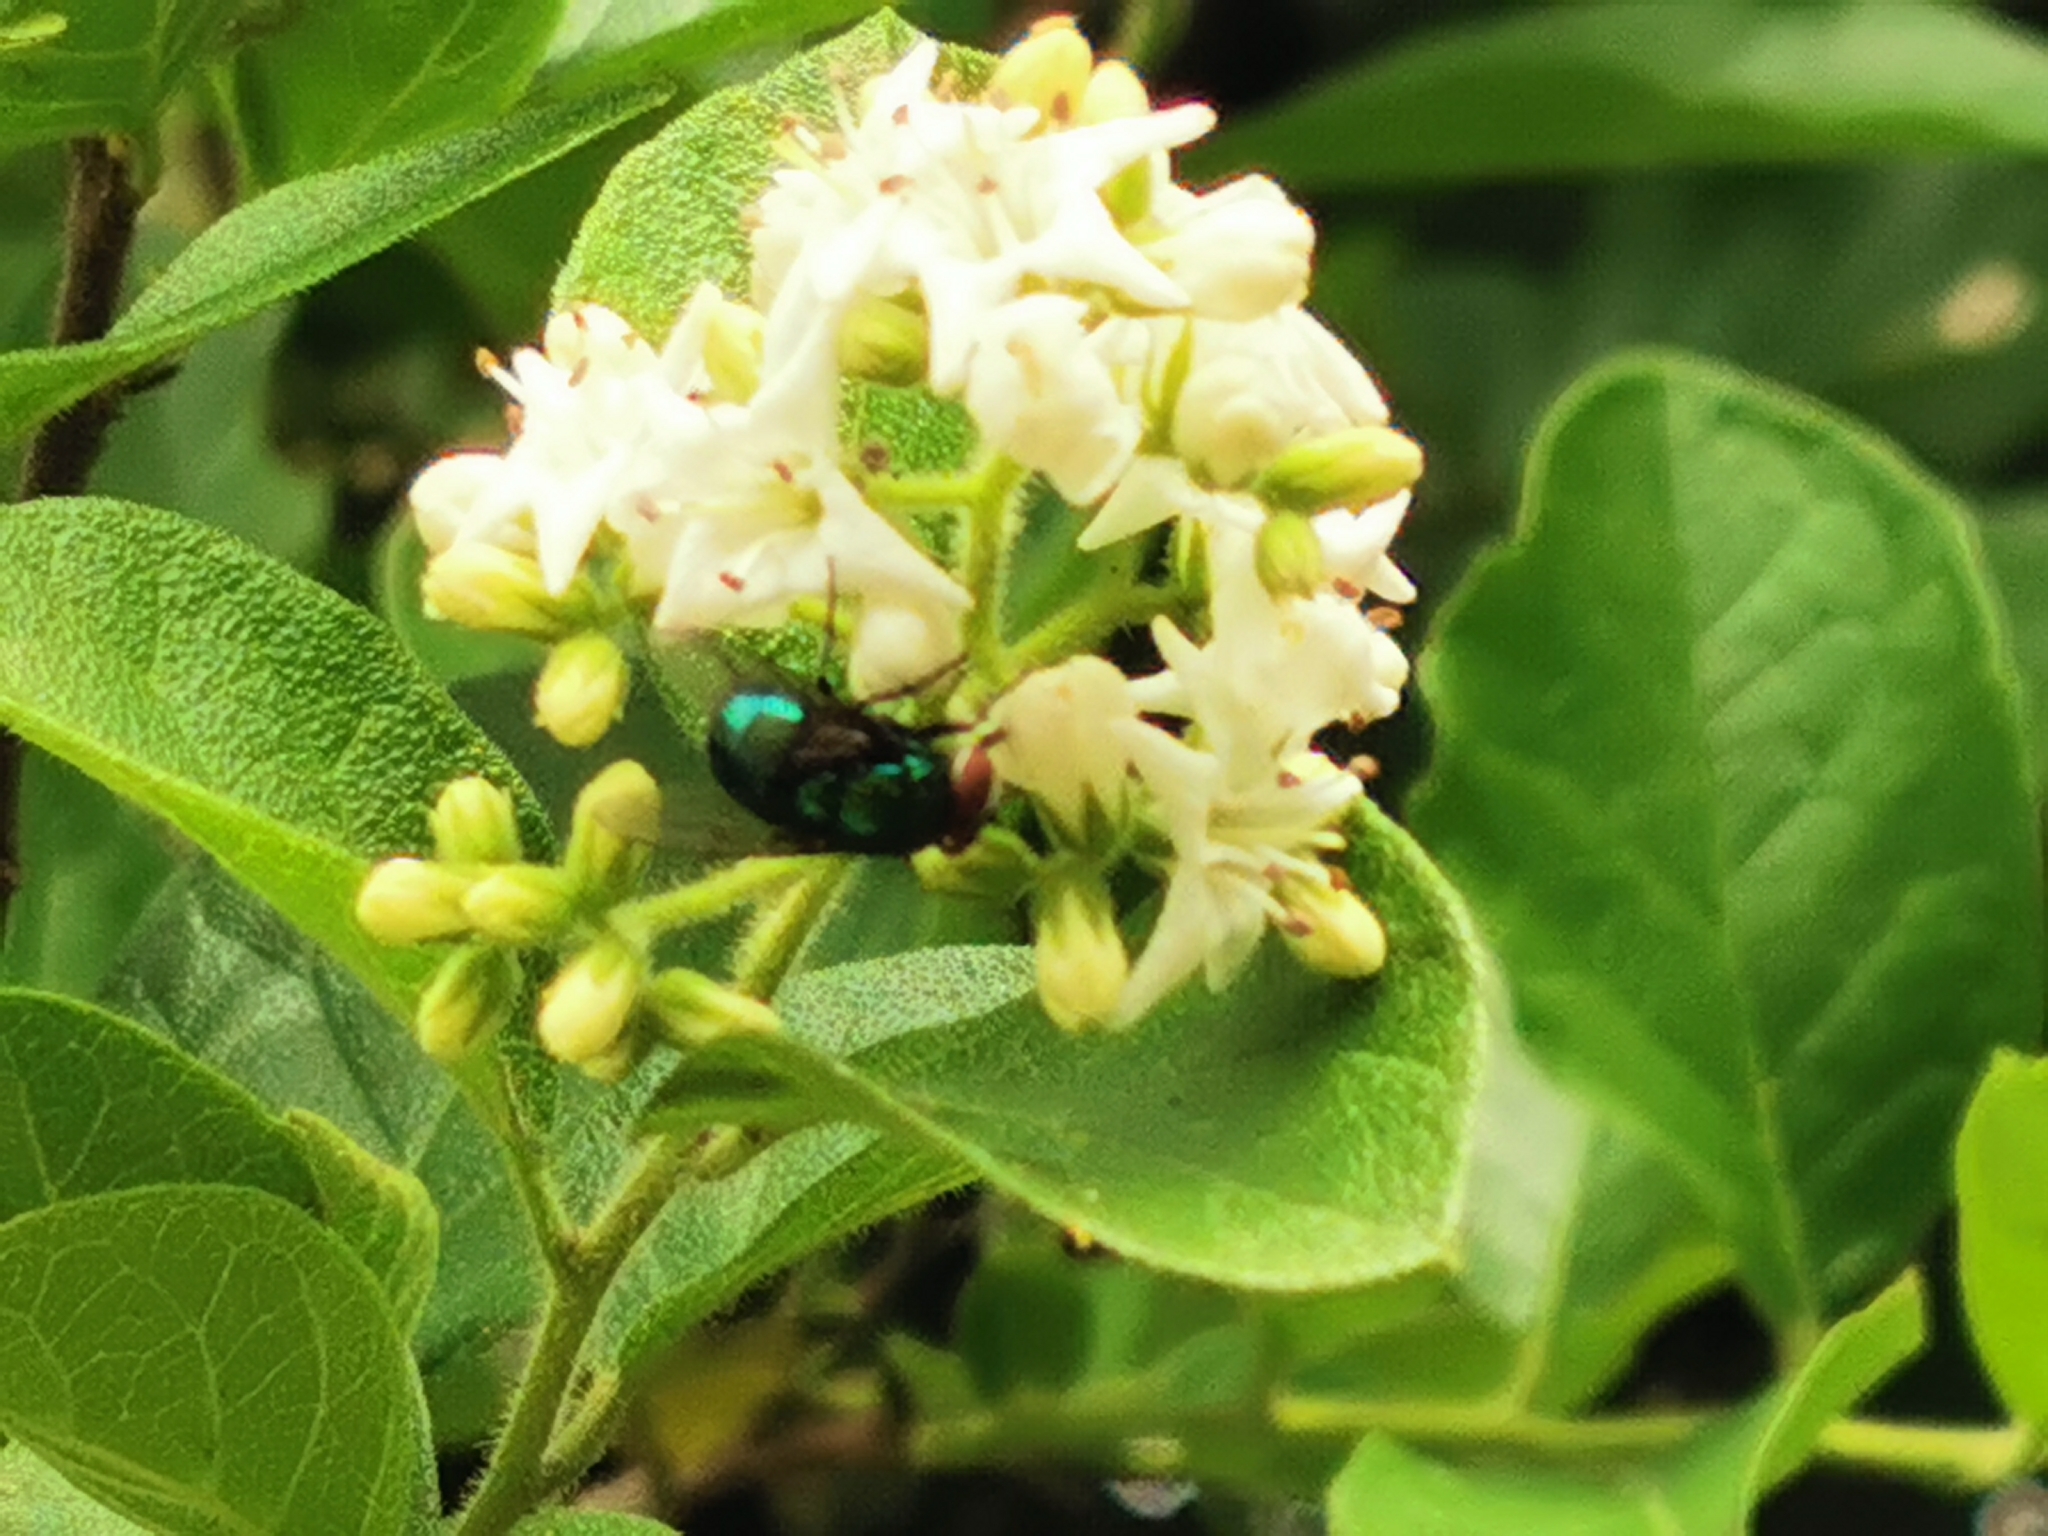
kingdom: Plantae
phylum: Tracheophyta
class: Magnoliopsida
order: Boraginales
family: Ehretiaceae
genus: Ehretia
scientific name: Ehretia anacua
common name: Sugarberry
